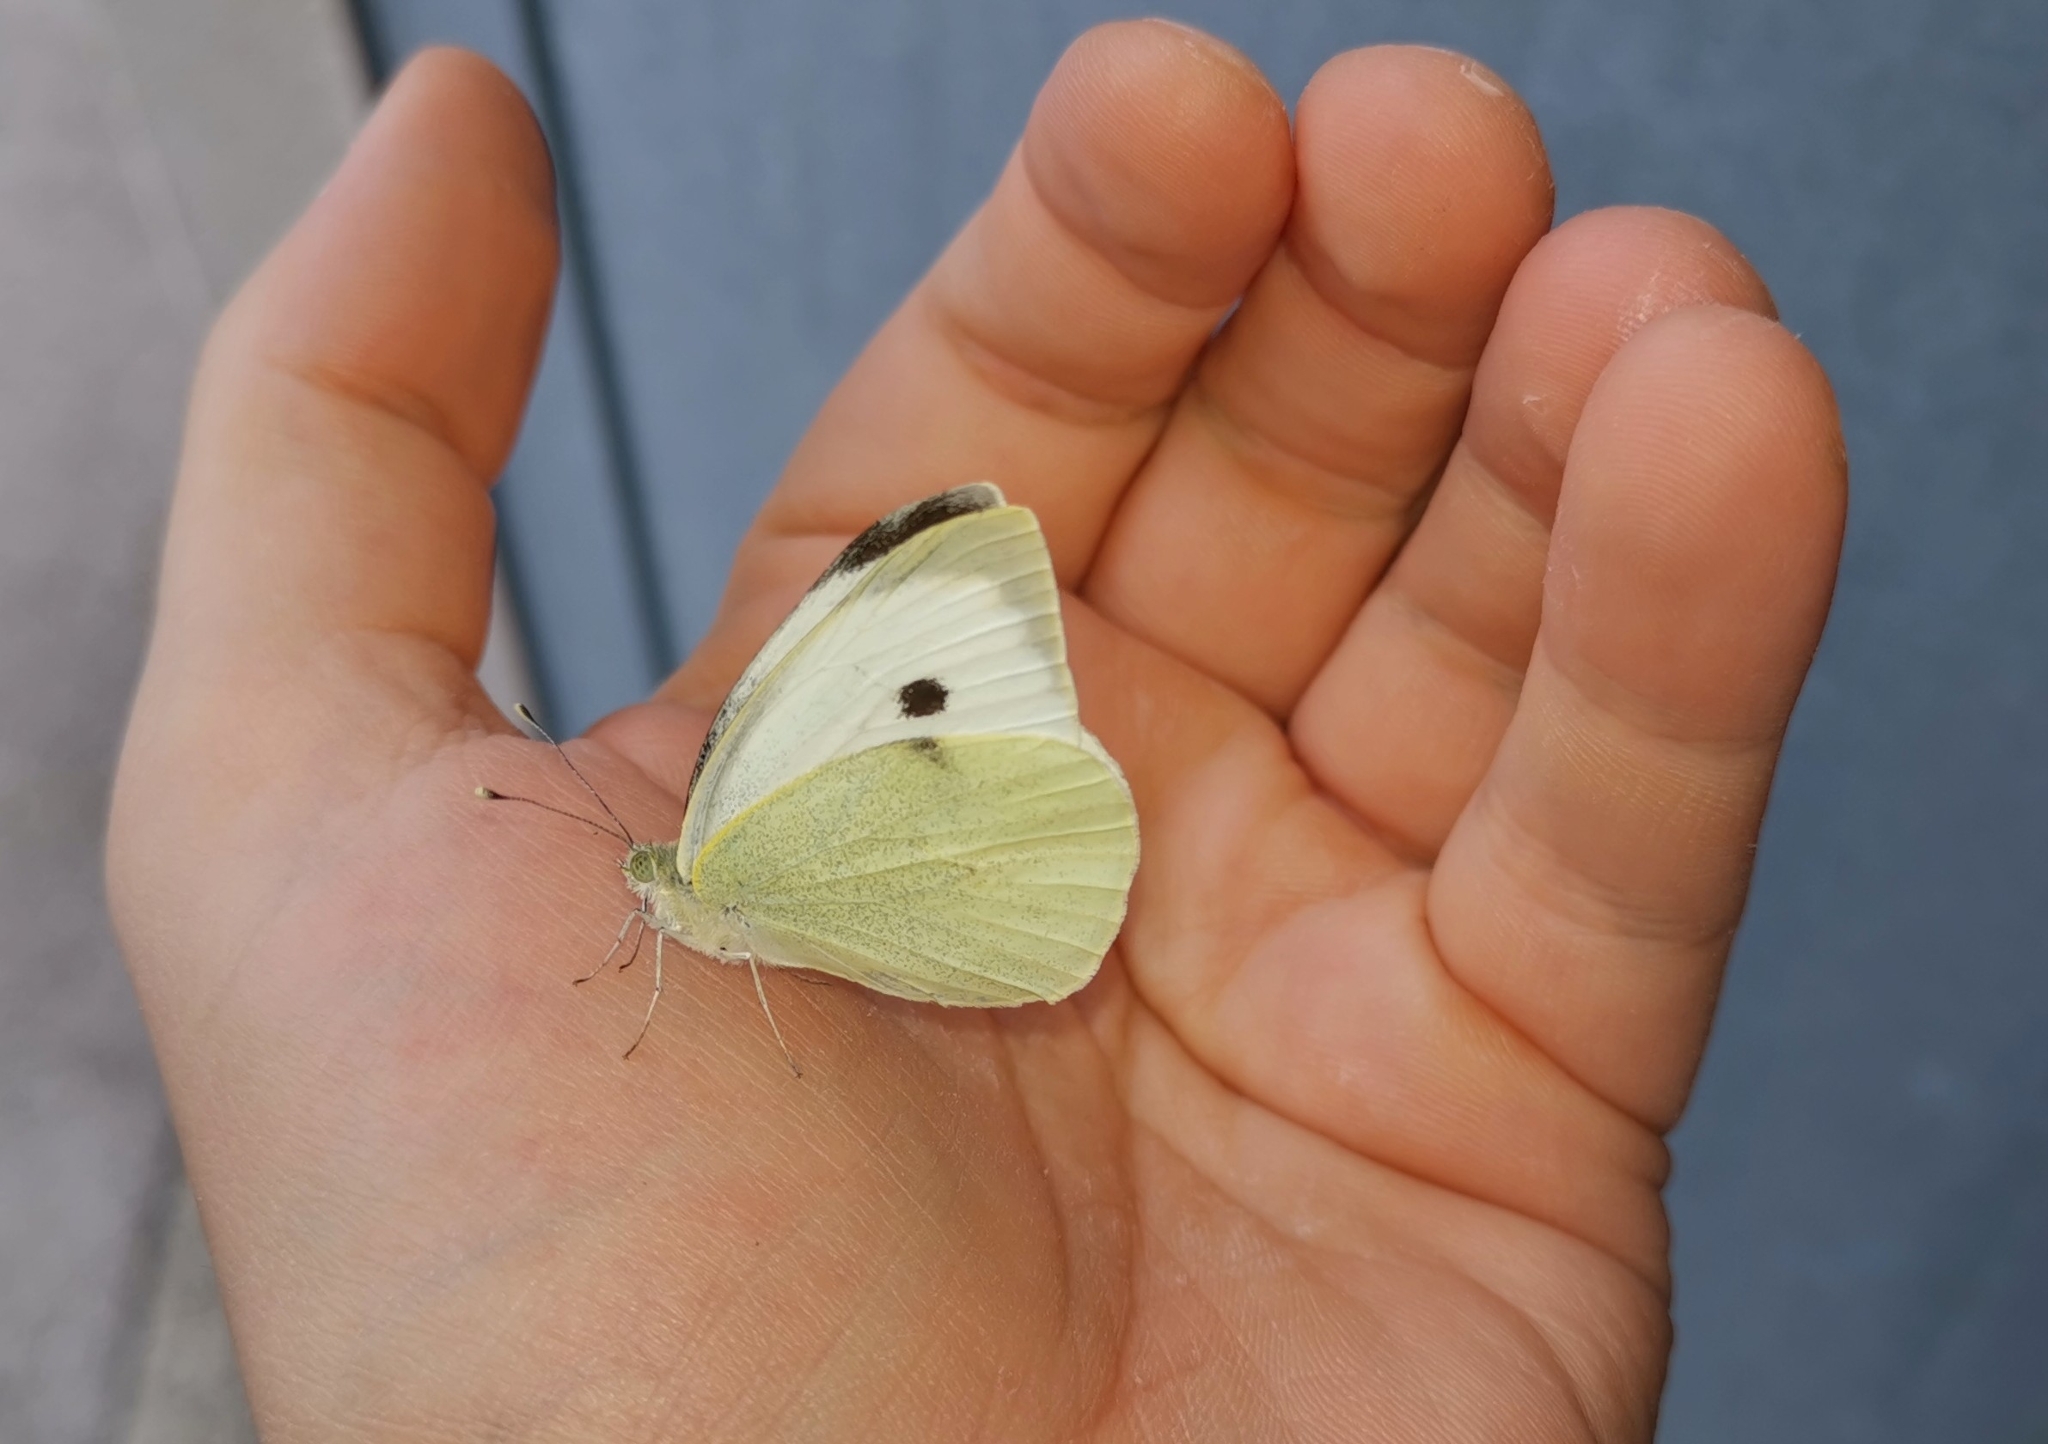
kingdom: Animalia
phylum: Arthropoda
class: Insecta
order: Lepidoptera
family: Pieridae
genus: Pieris
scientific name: Pieris brassicae
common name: Large white
